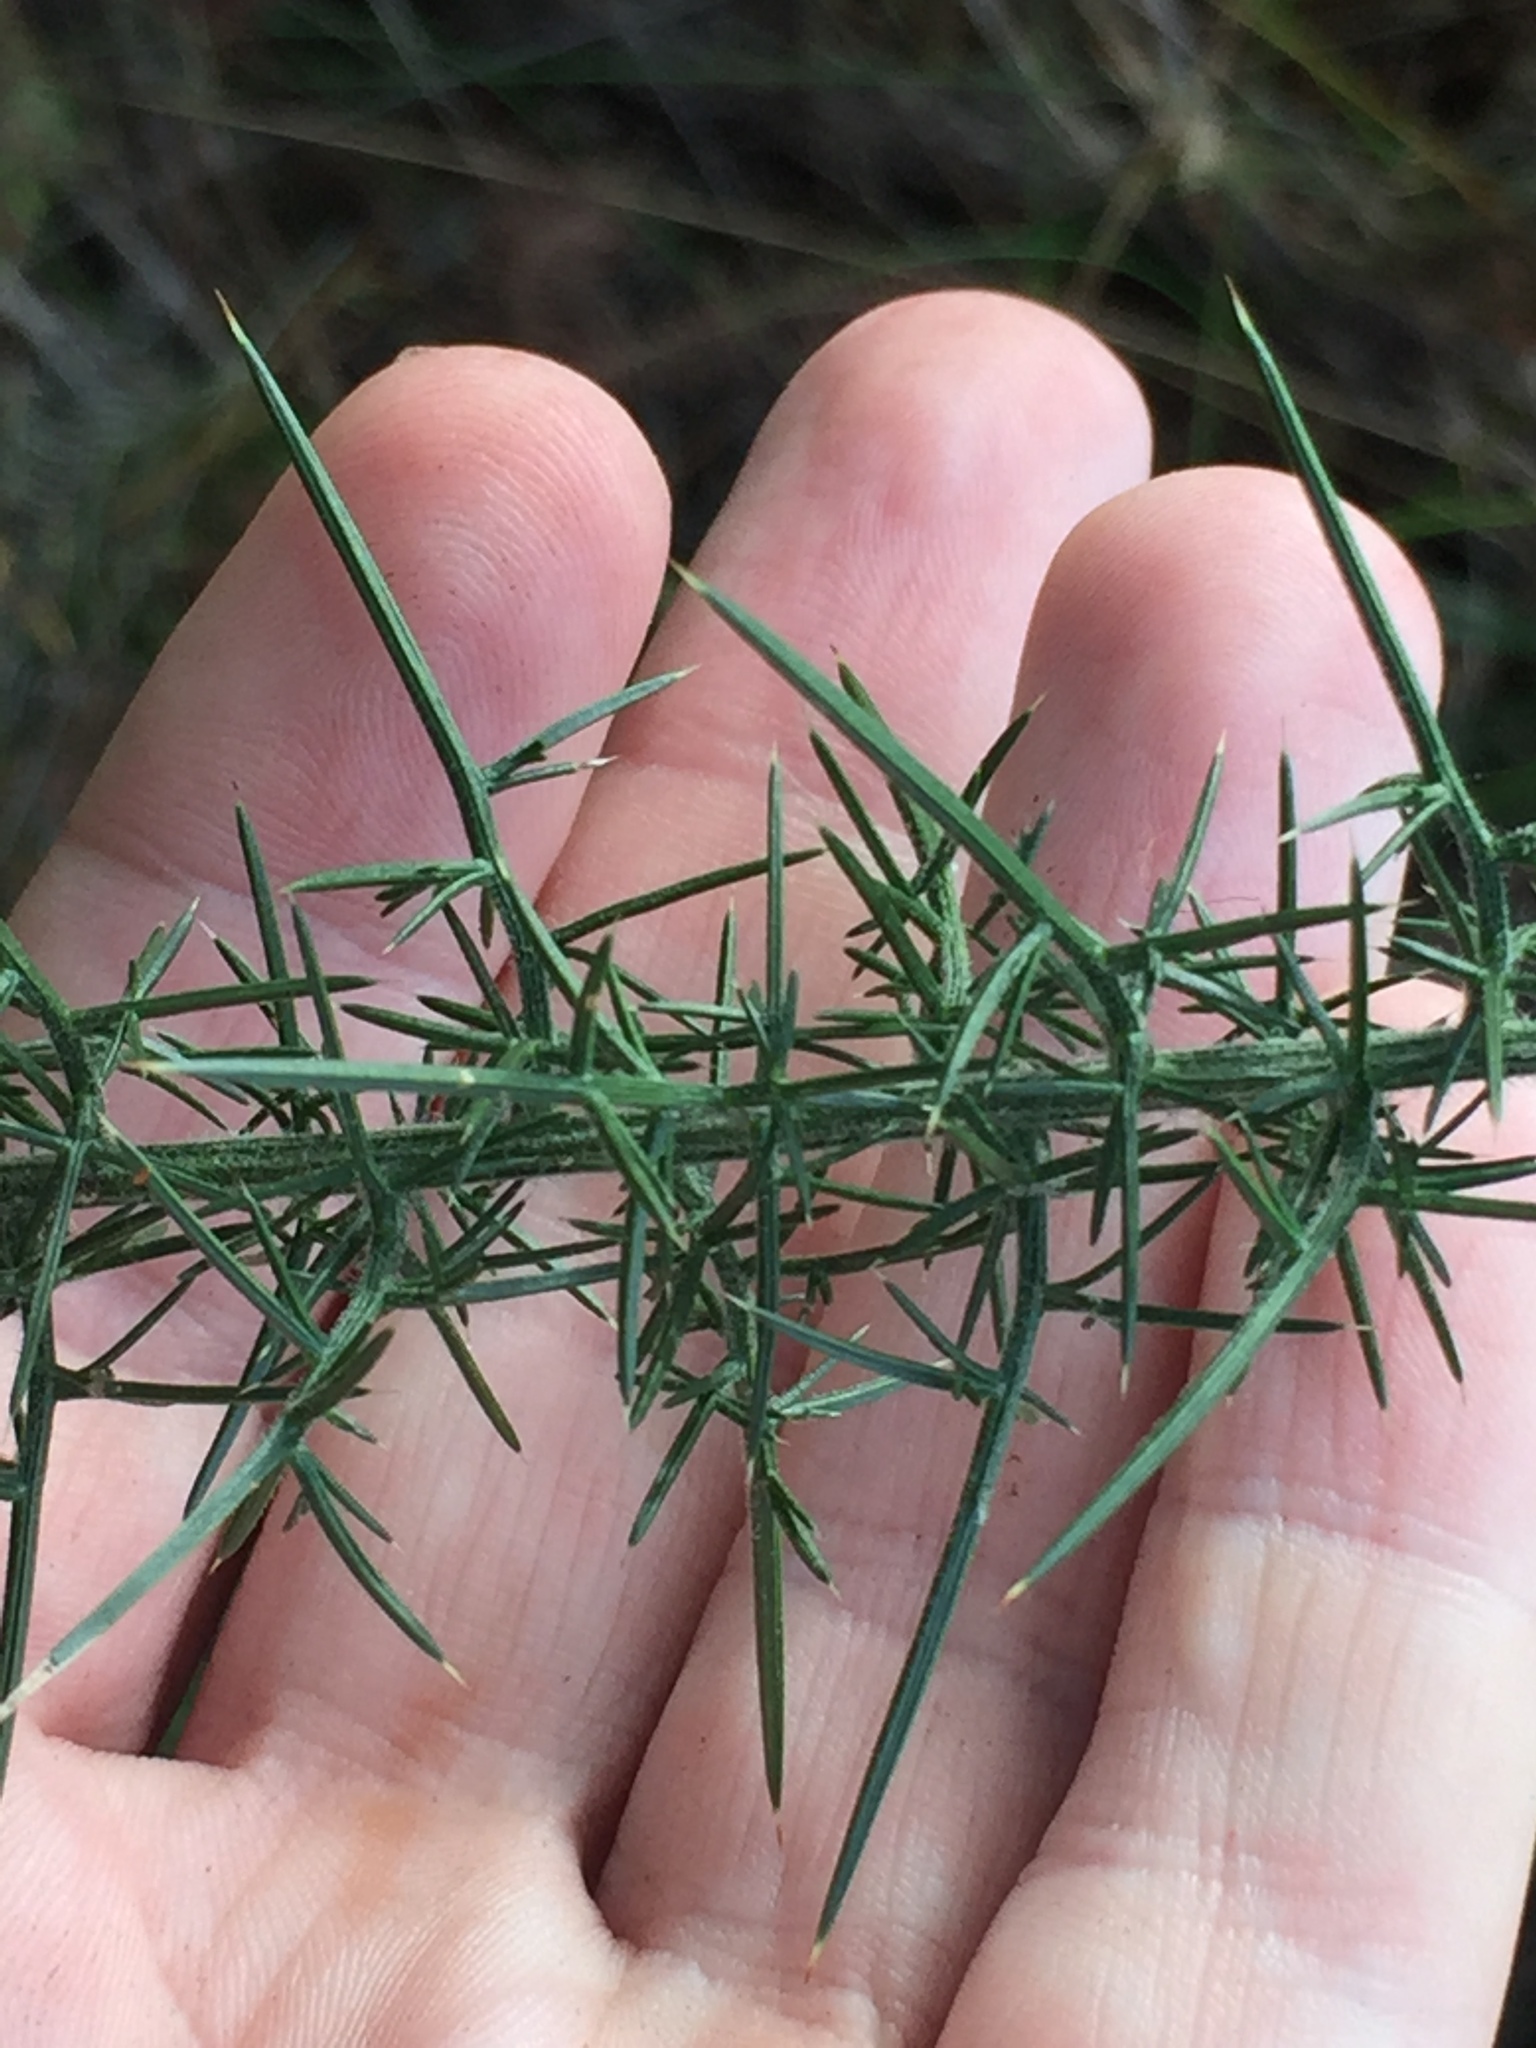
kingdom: Plantae
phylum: Tracheophyta
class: Magnoliopsida
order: Fabales
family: Fabaceae
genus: Ulex
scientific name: Ulex europaeus
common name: Common gorse
